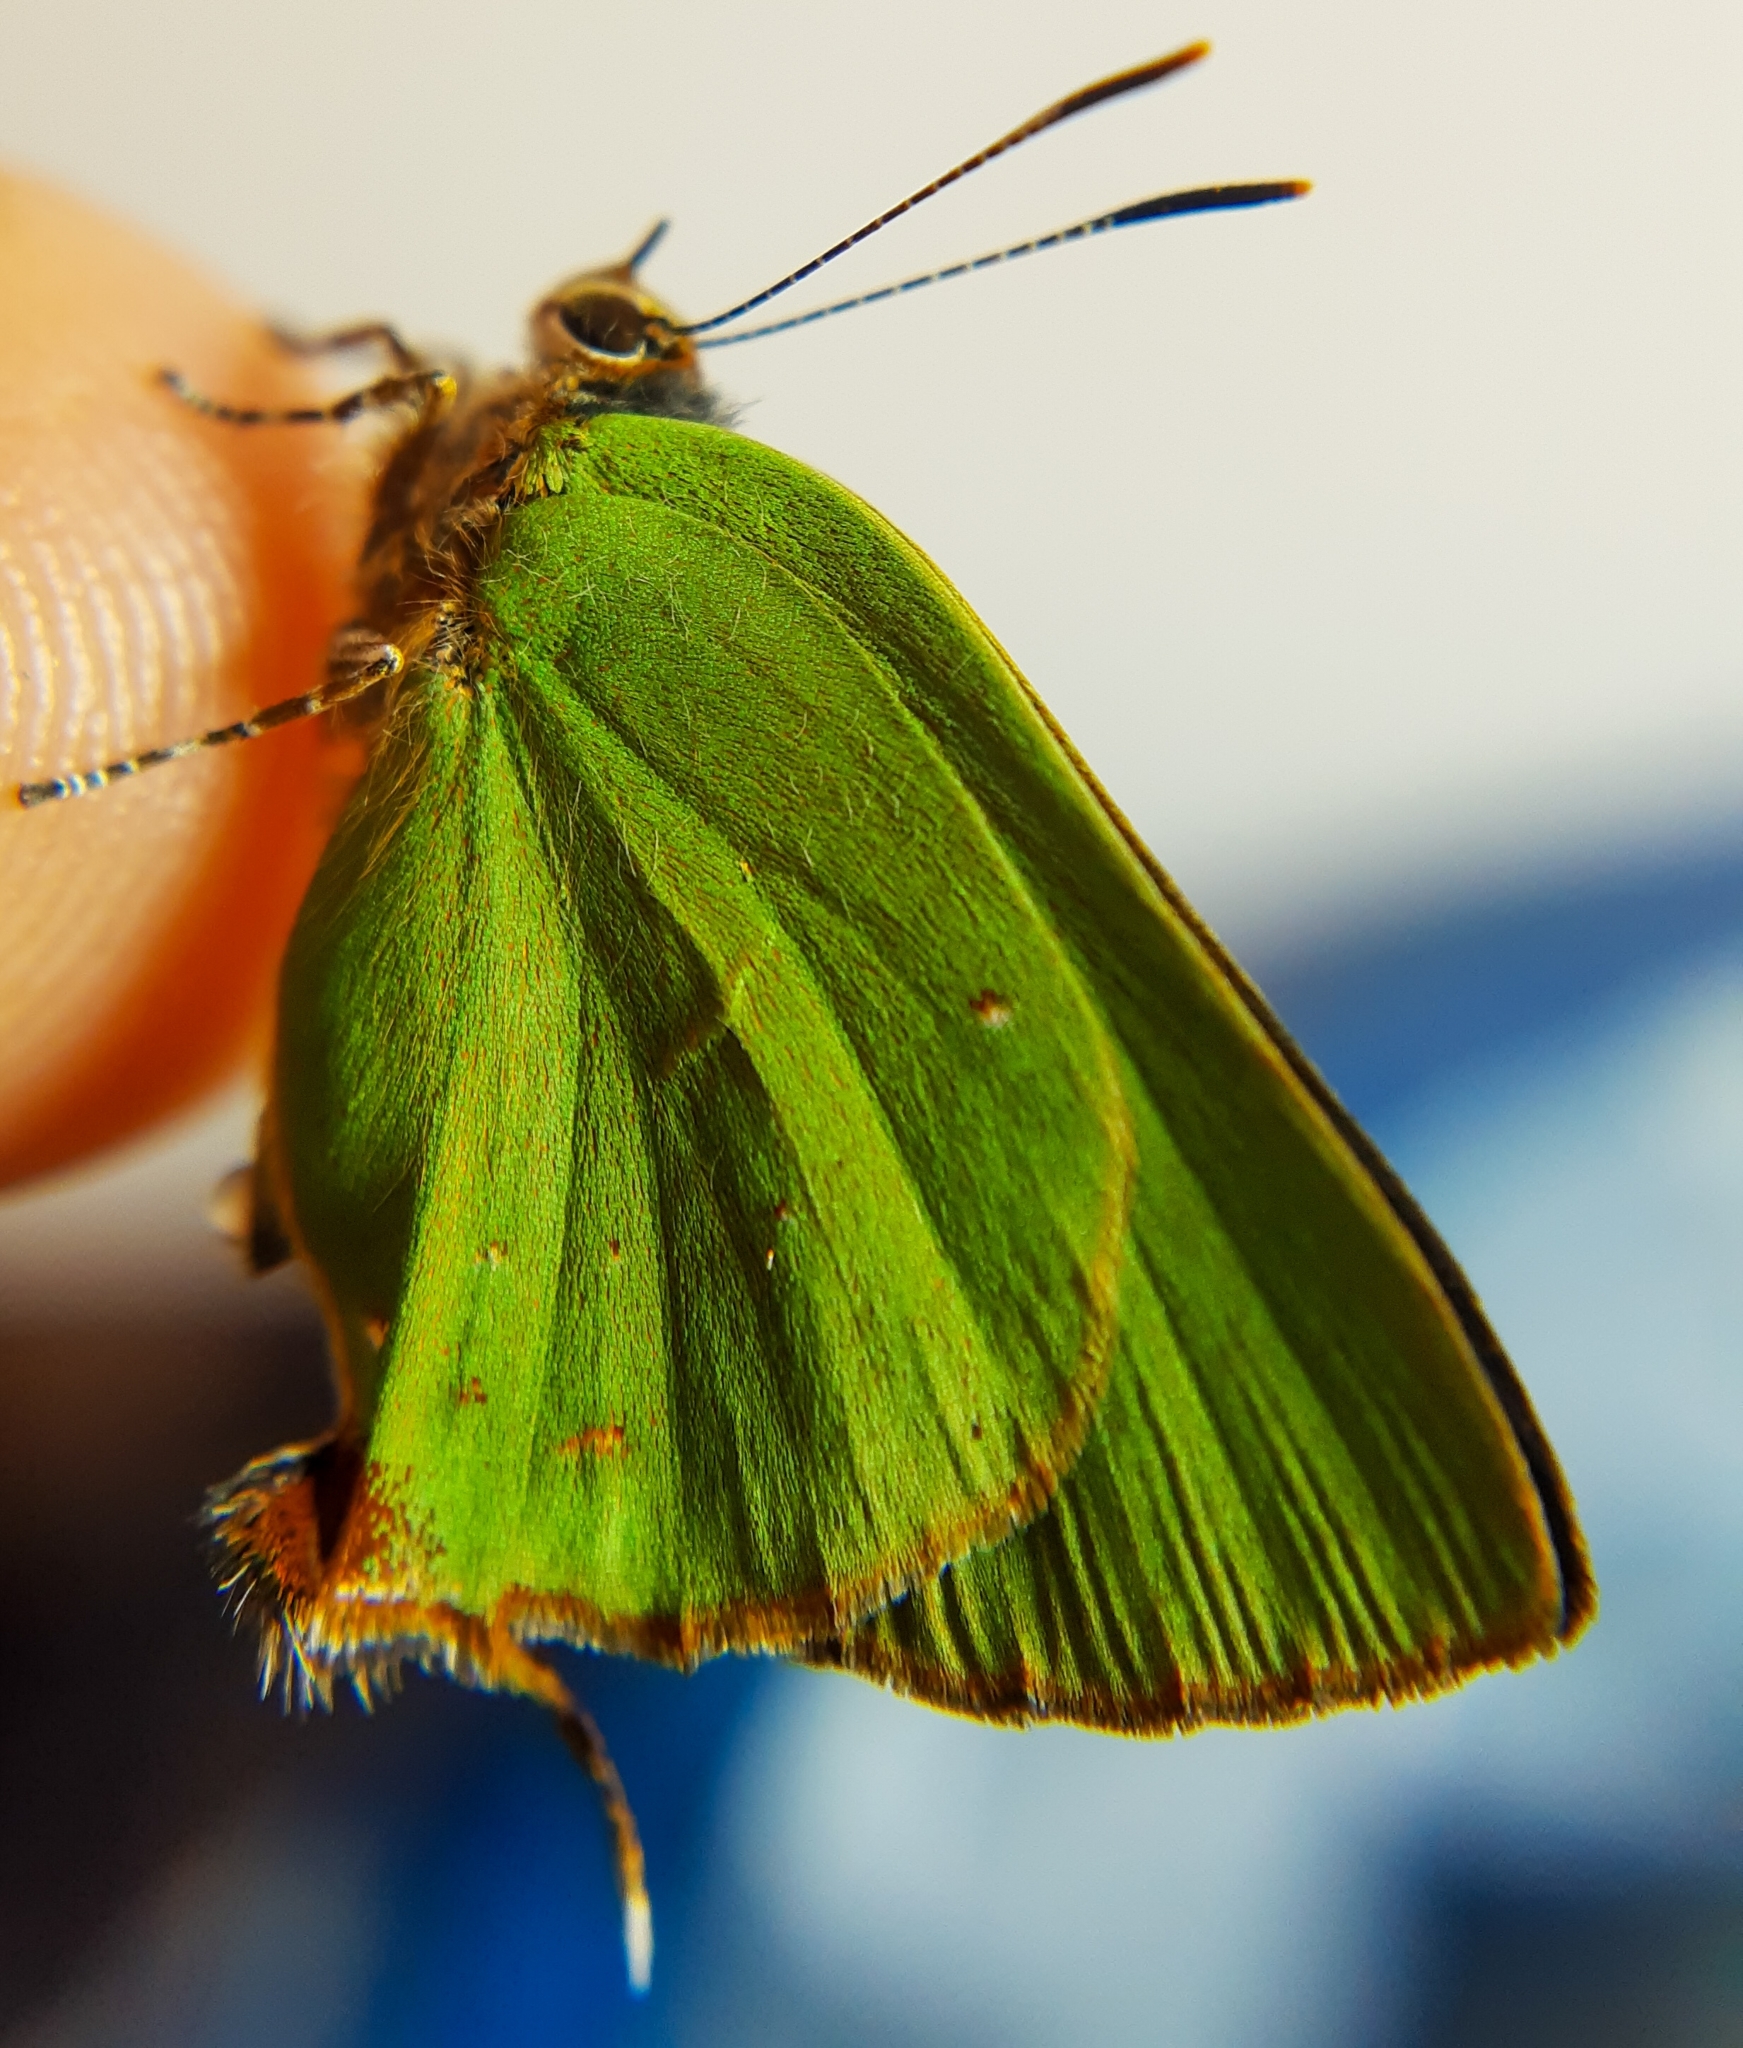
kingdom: Animalia
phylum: Arthropoda
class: Insecta
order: Lepidoptera
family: Lycaenidae
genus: Thecla
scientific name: Thecla herodotus
